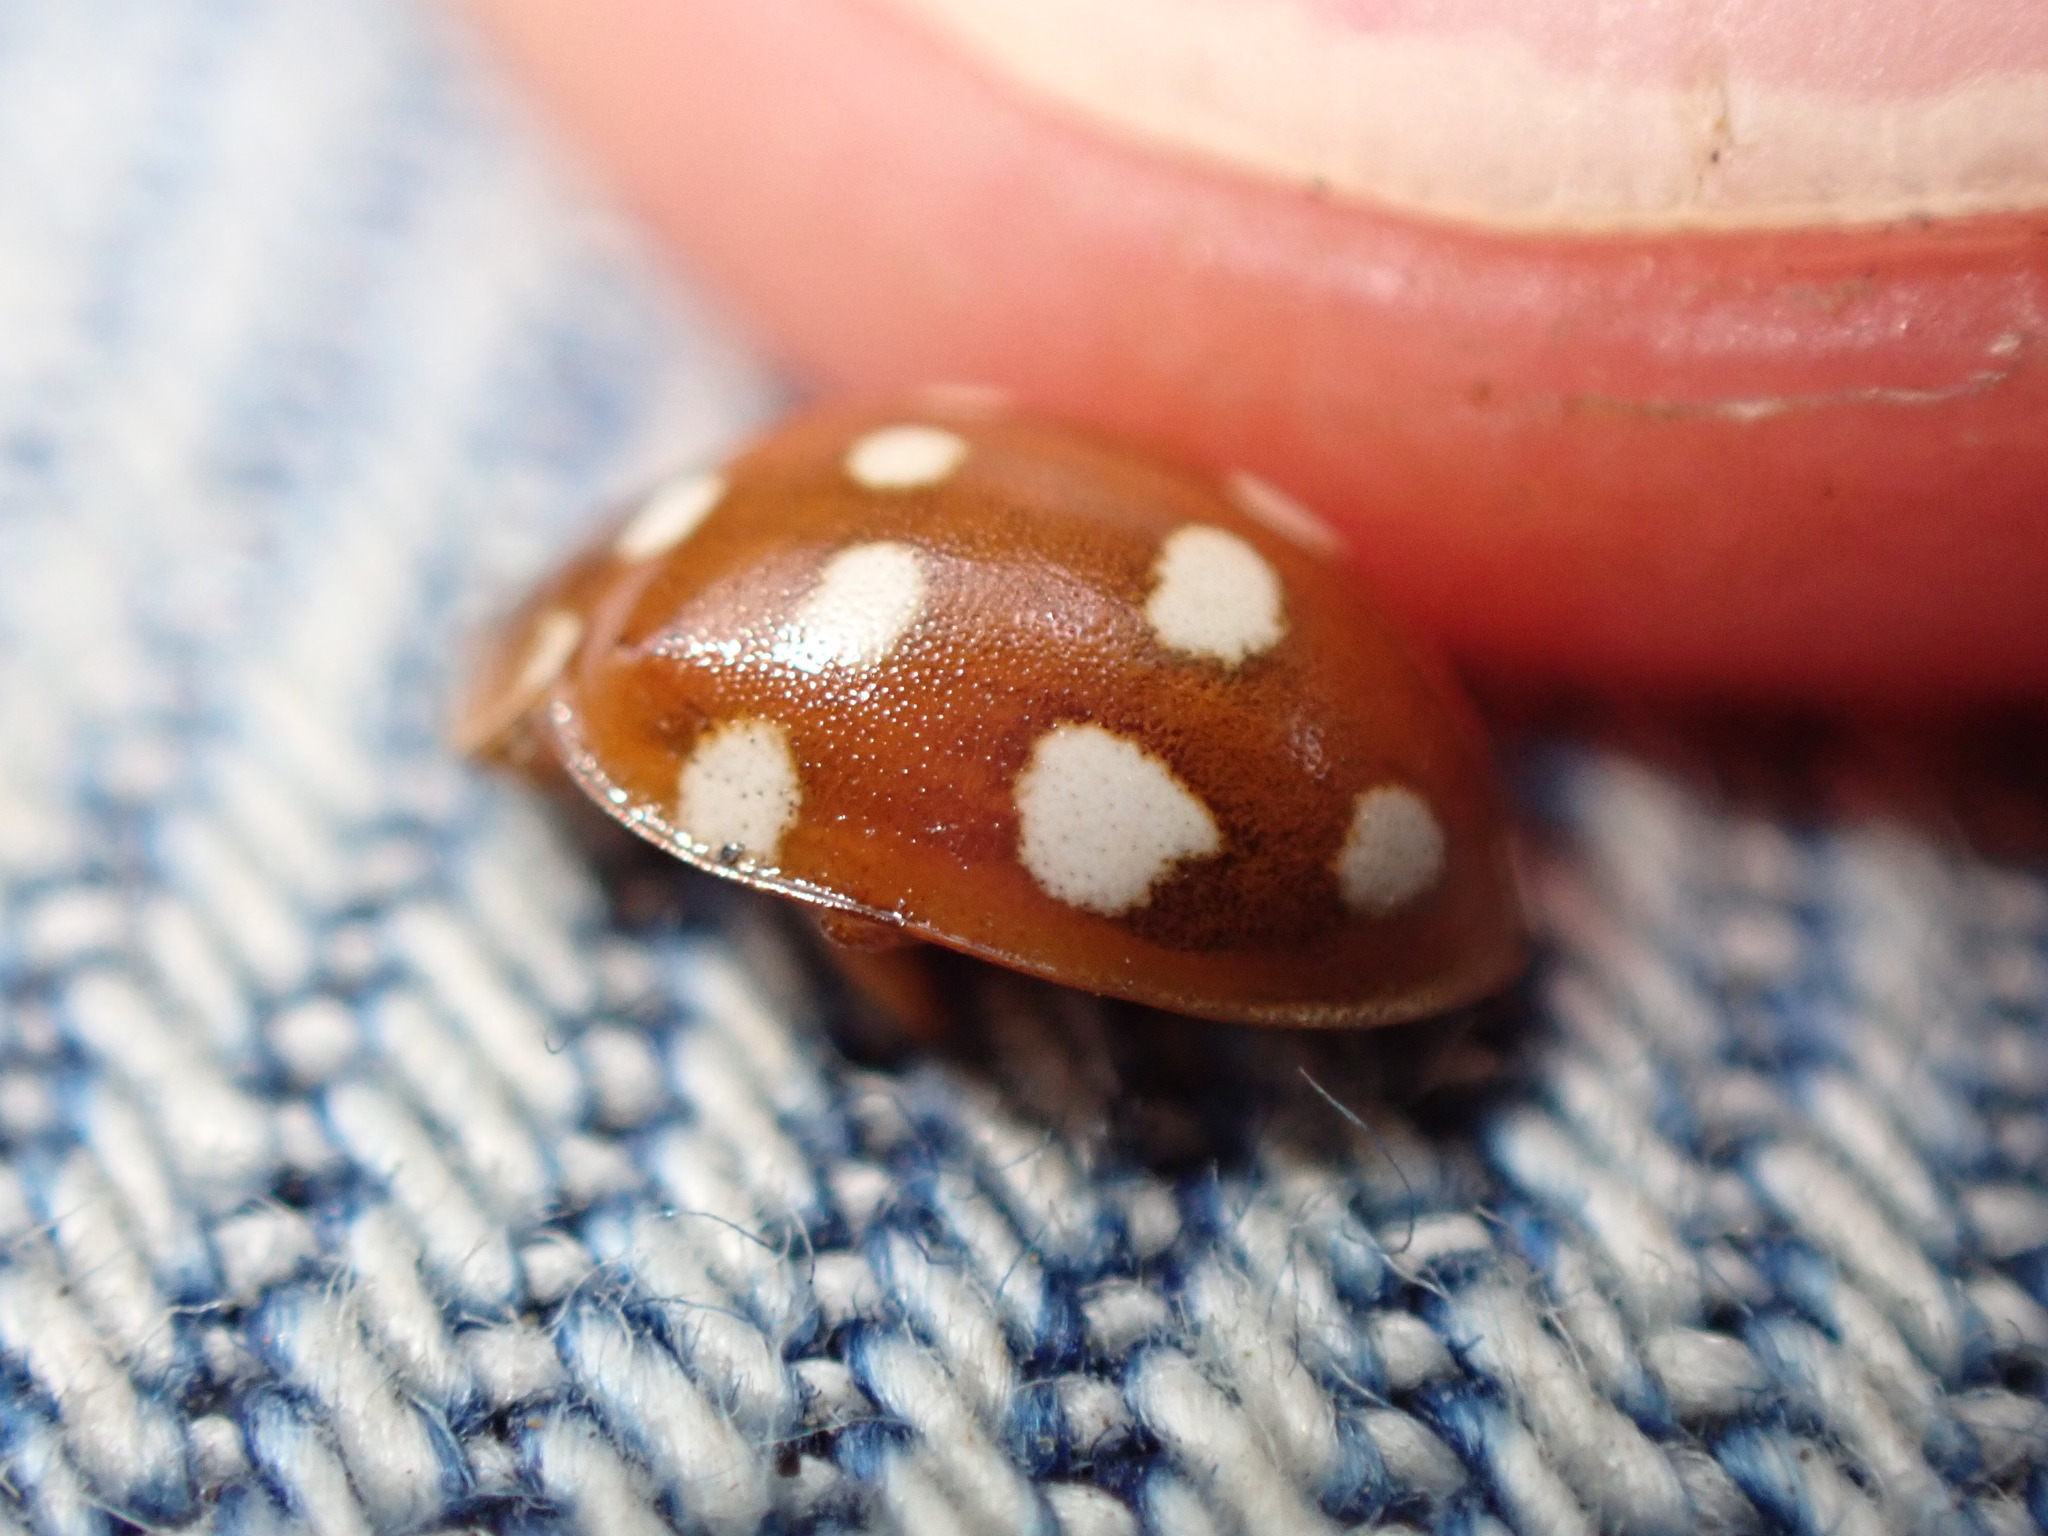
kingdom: Animalia
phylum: Arthropoda
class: Insecta
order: Coleoptera
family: Coccinellidae
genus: Calvia
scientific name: Calvia quatuordecimguttata
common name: Cream-spot ladybird
